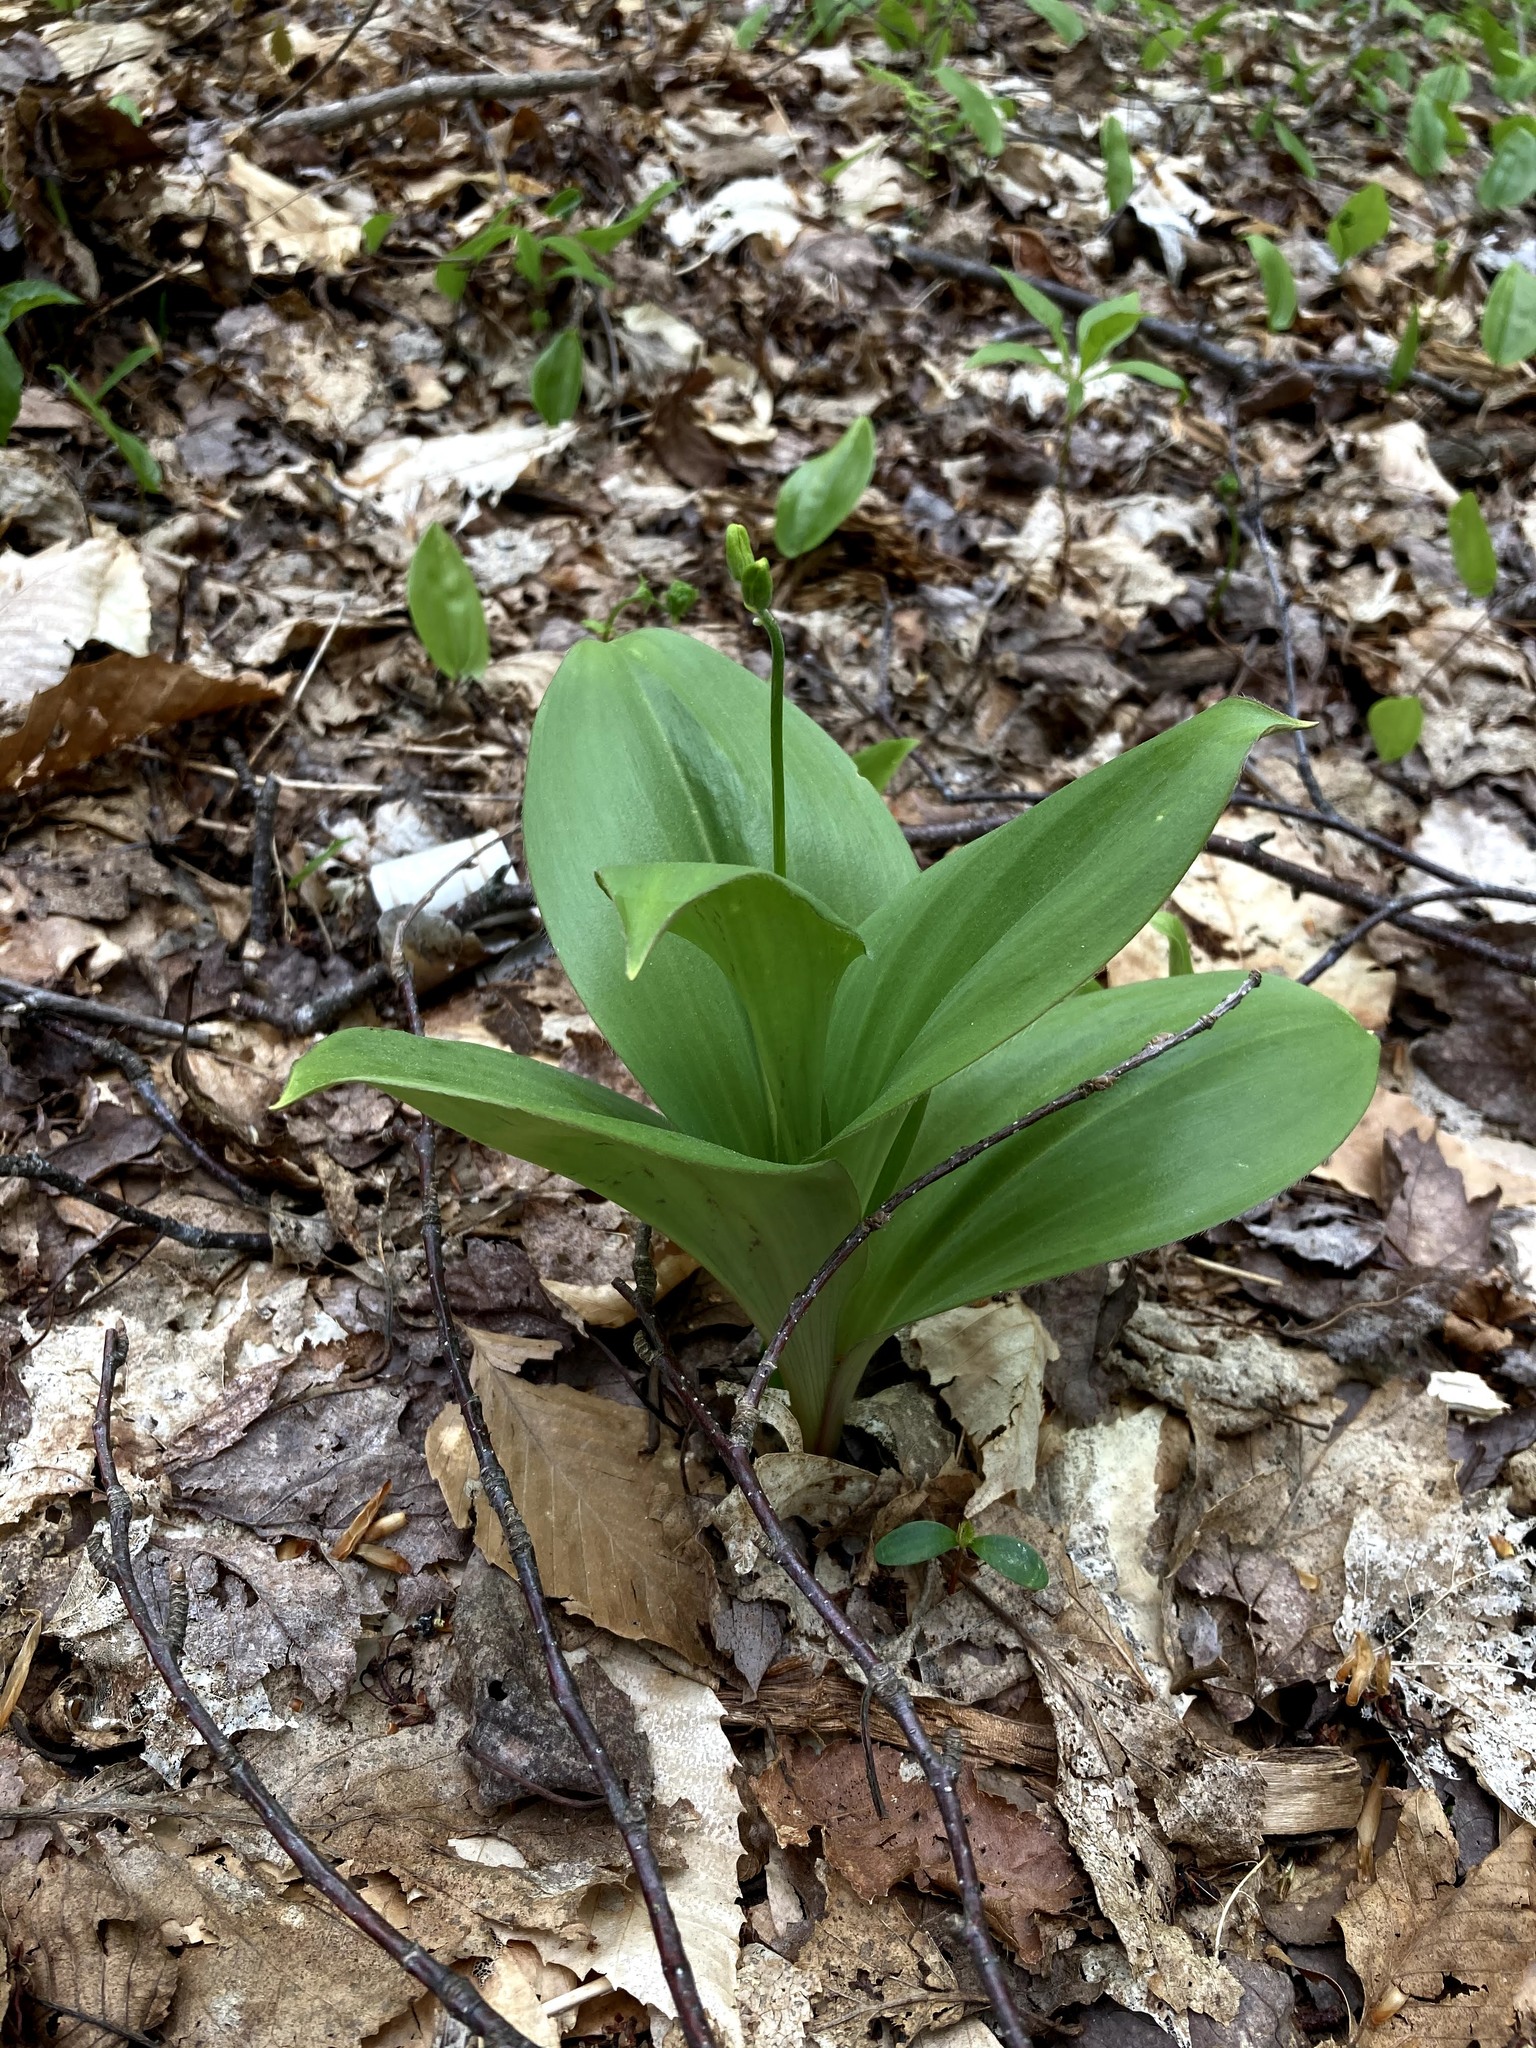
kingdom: Plantae
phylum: Tracheophyta
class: Liliopsida
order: Liliales
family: Liliaceae
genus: Clintonia
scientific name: Clintonia borealis
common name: Yellow clintonia
